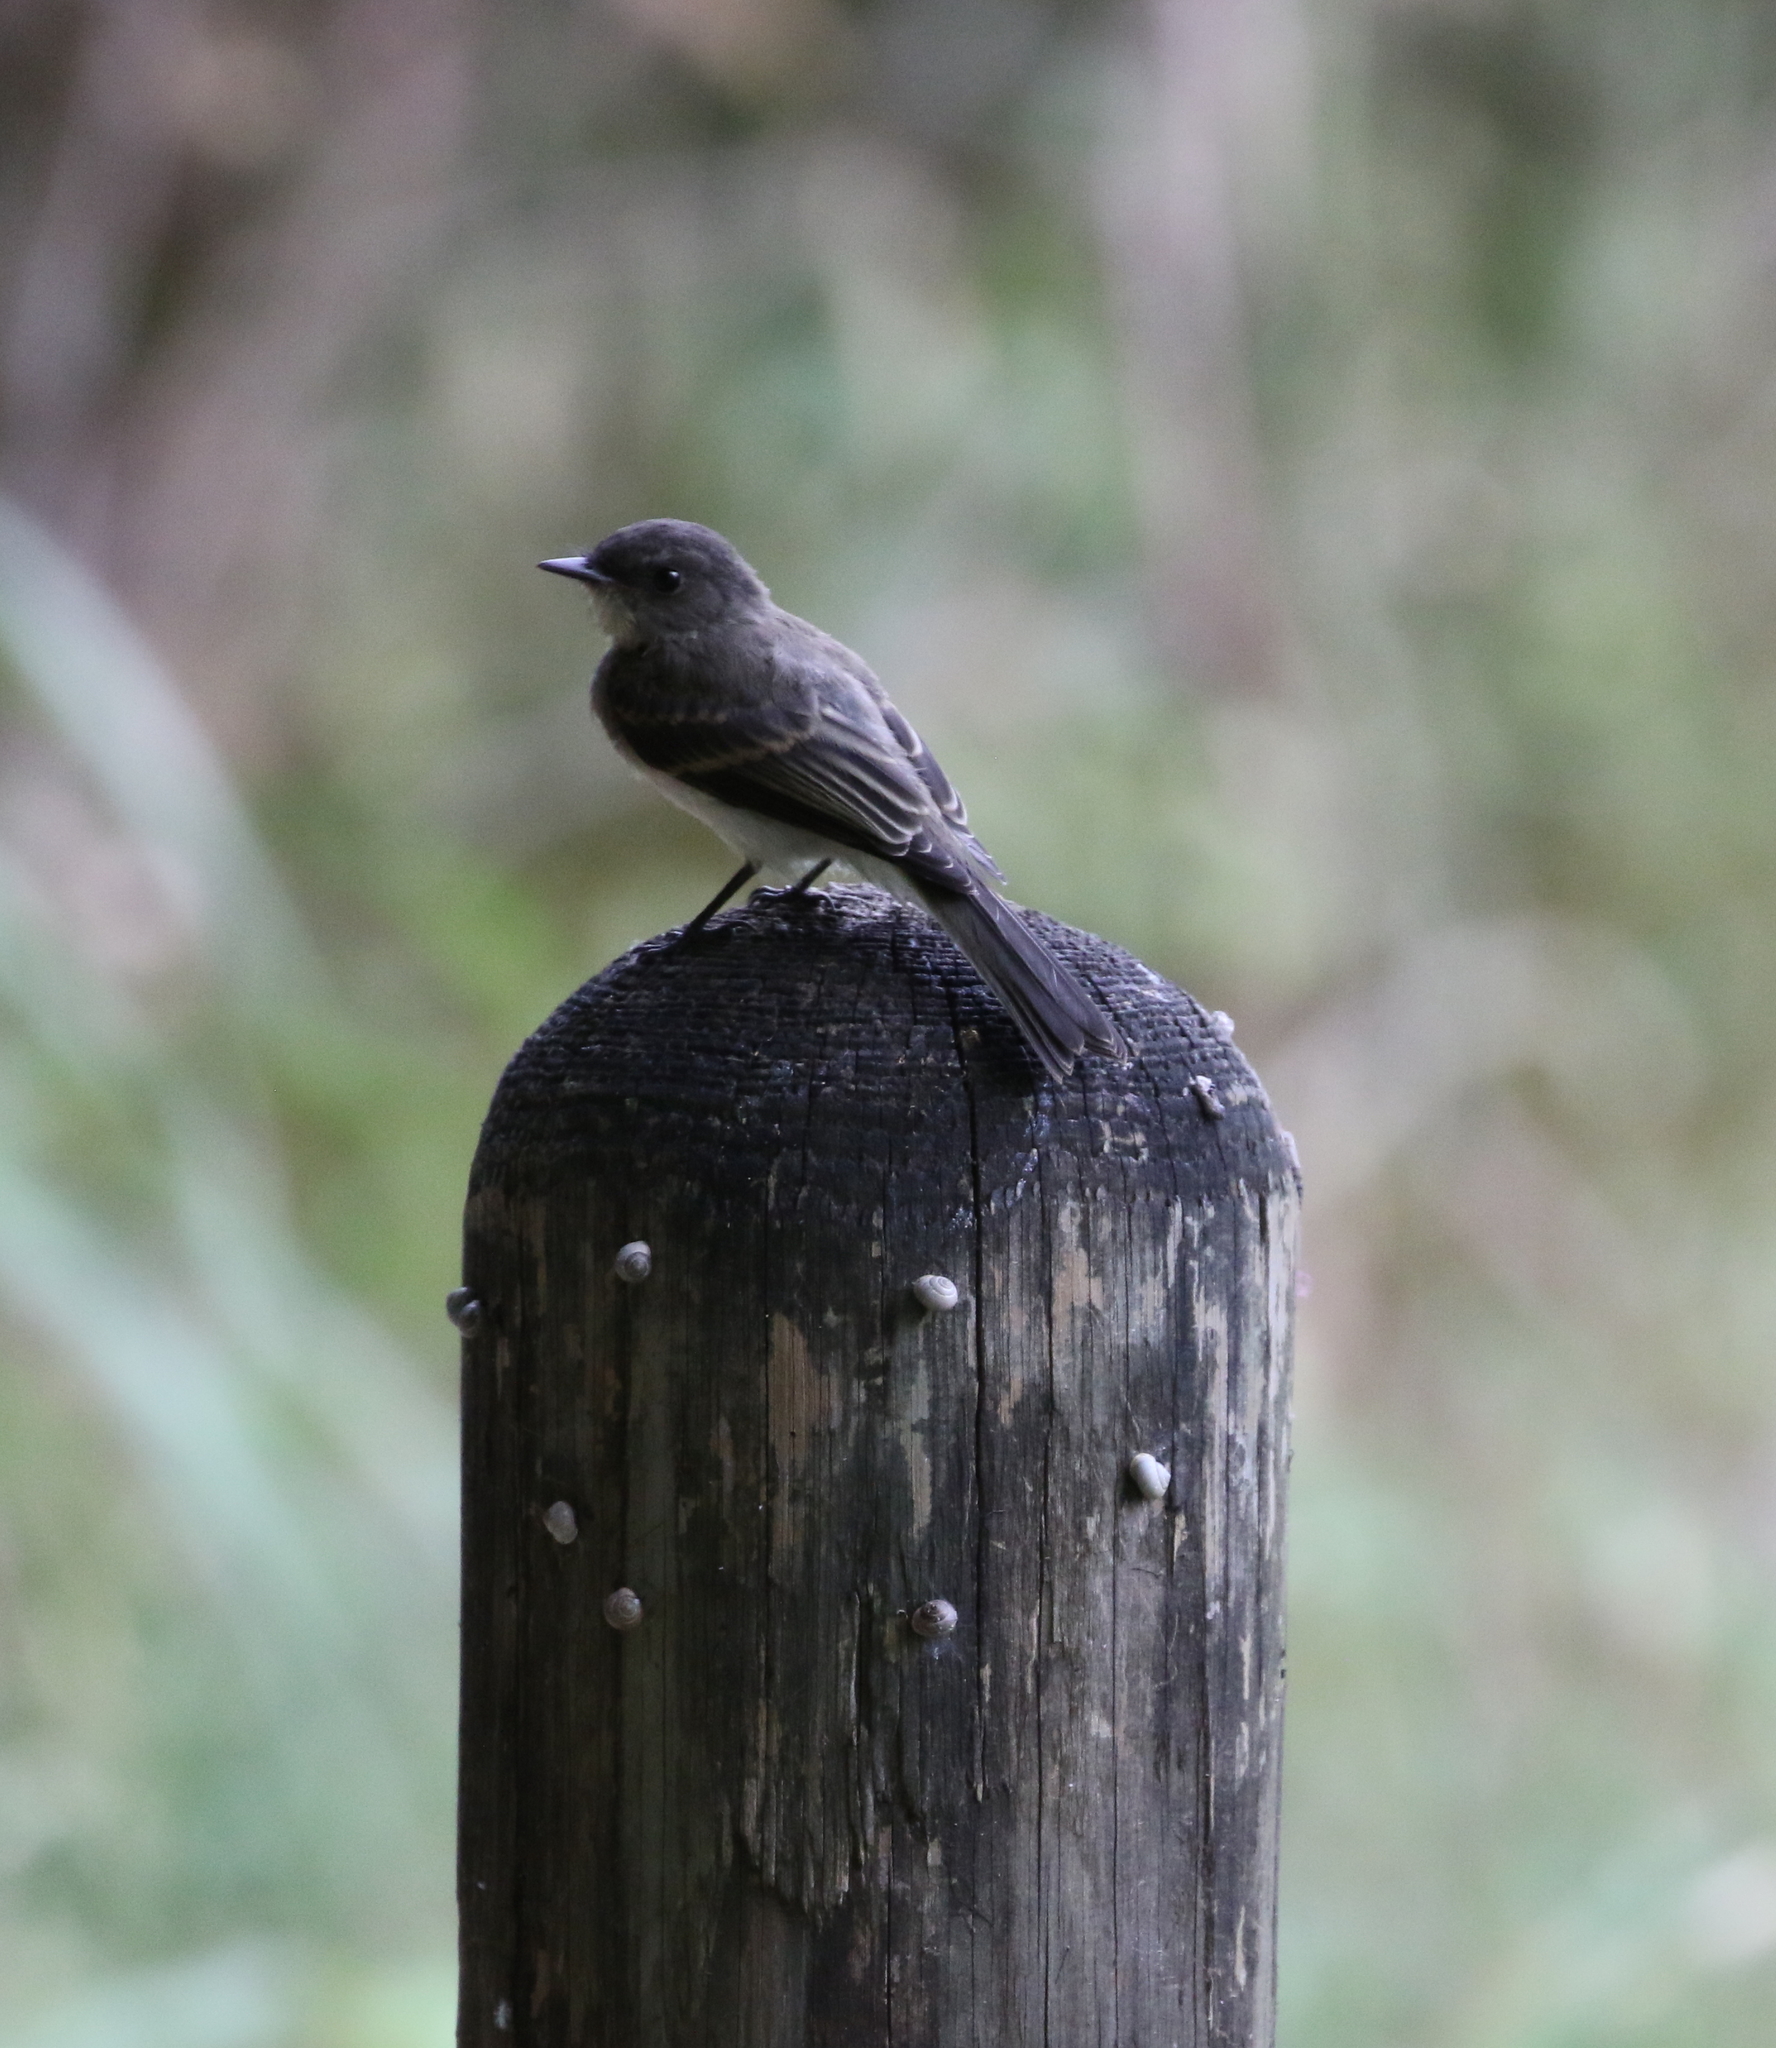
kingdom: Animalia
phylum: Chordata
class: Aves
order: Passeriformes
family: Tyrannidae
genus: Sayornis
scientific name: Sayornis phoebe
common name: Eastern phoebe
